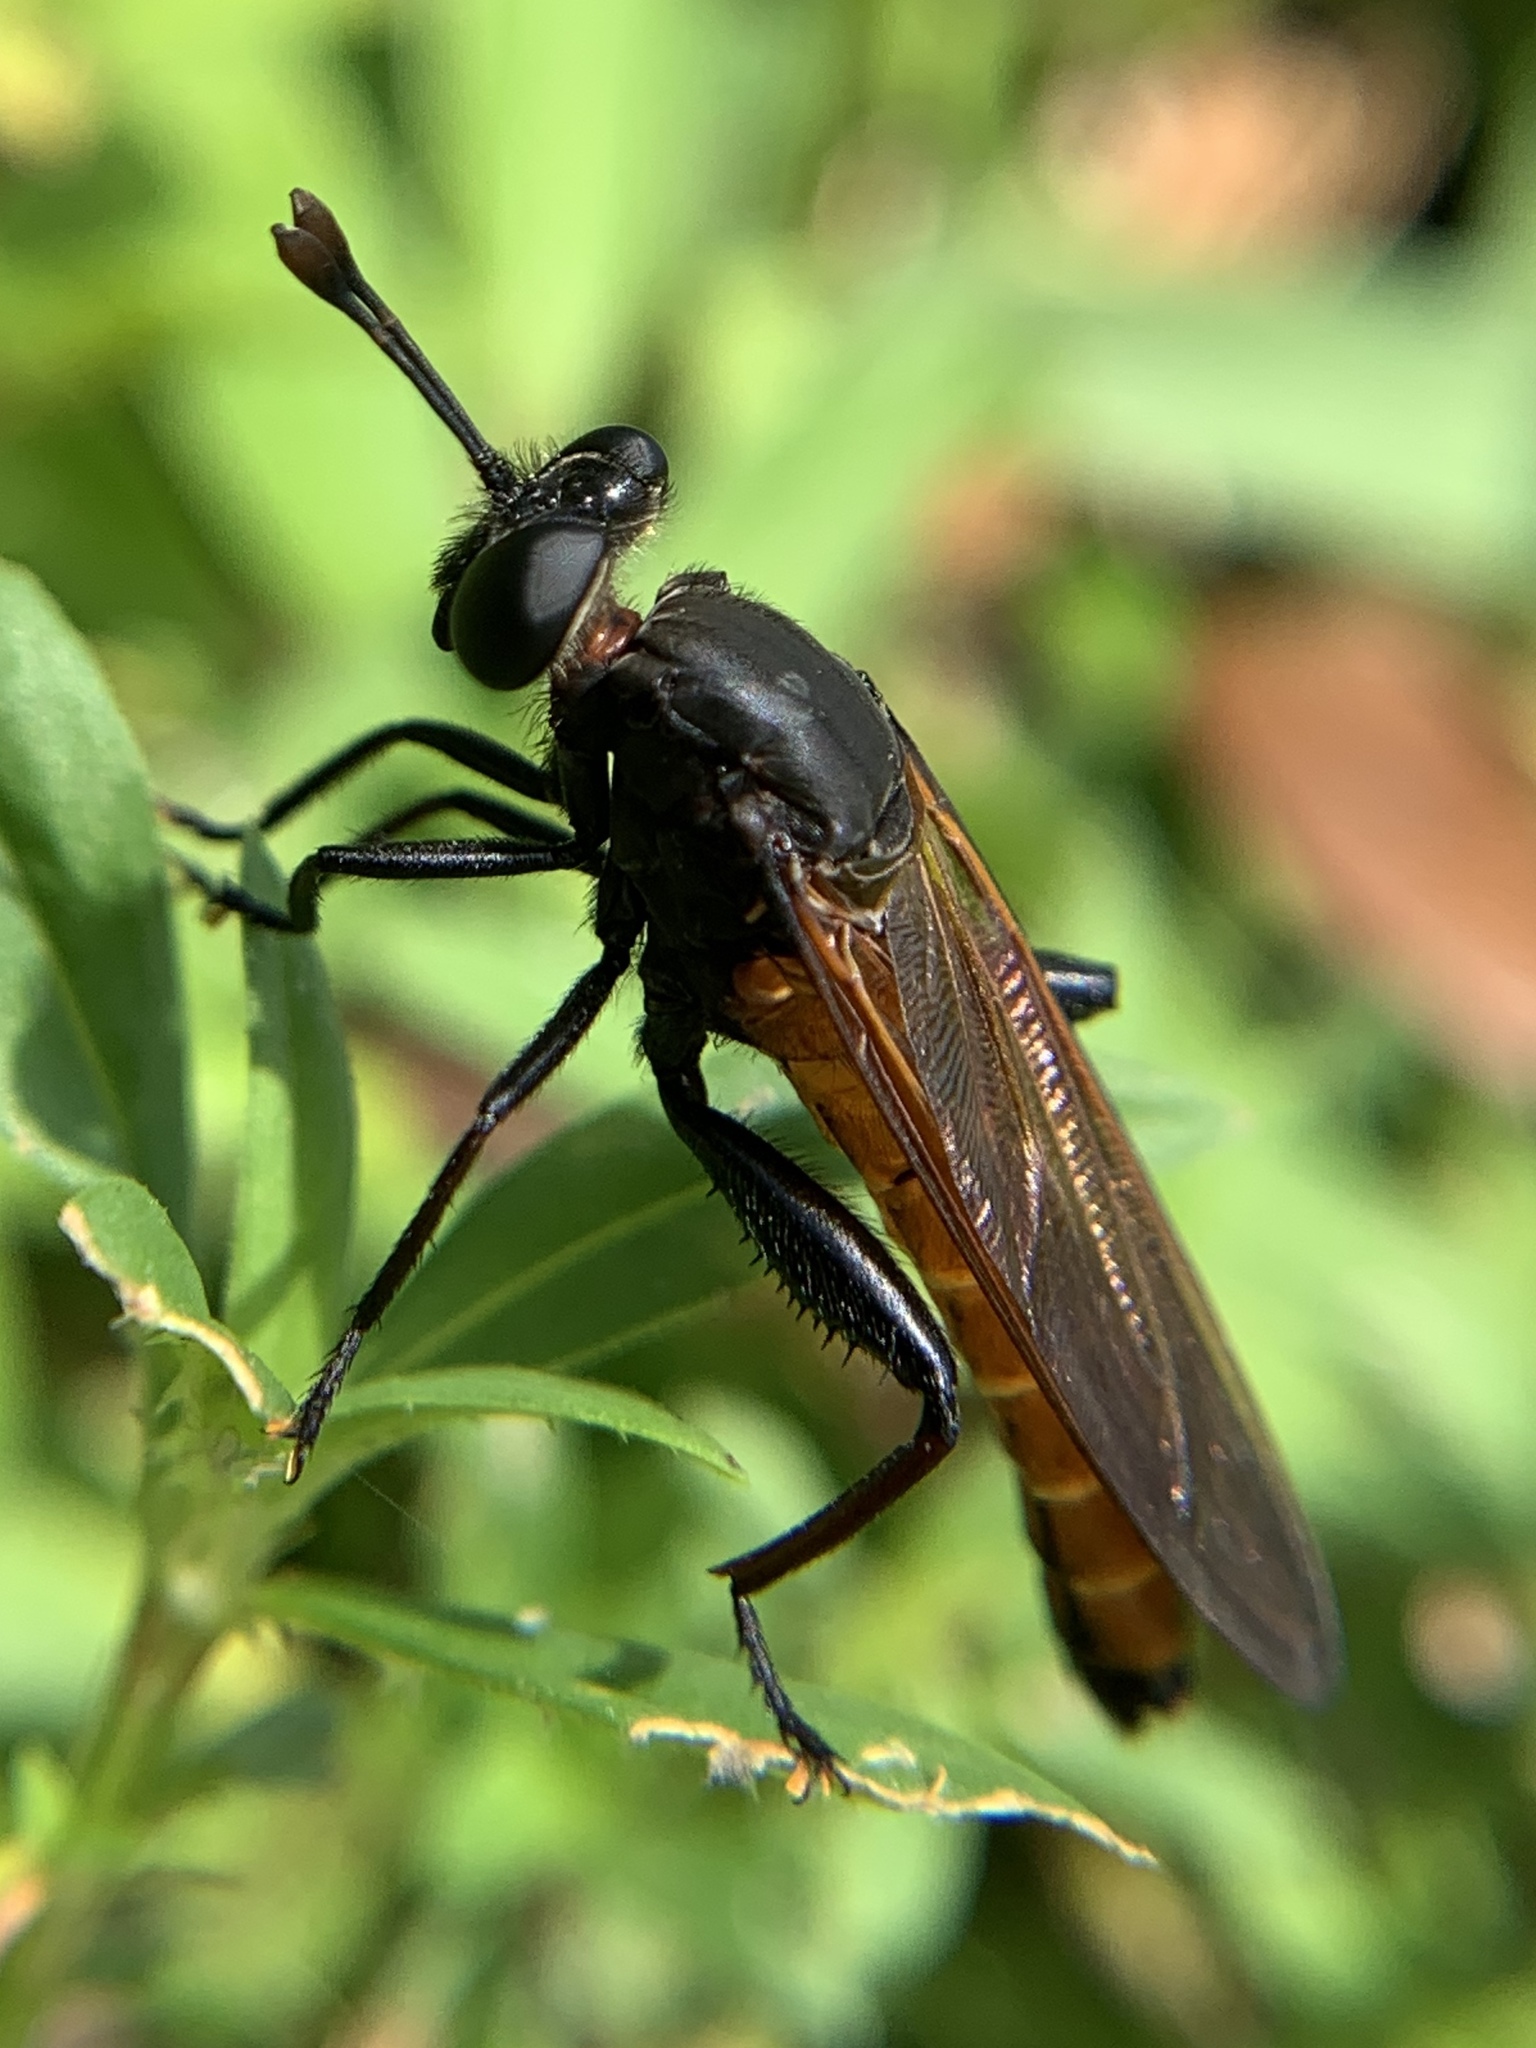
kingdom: Animalia
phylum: Arthropoda
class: Insecta
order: Diptera
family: Mydidae
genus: Mydas
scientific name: Mydas maculiventris
